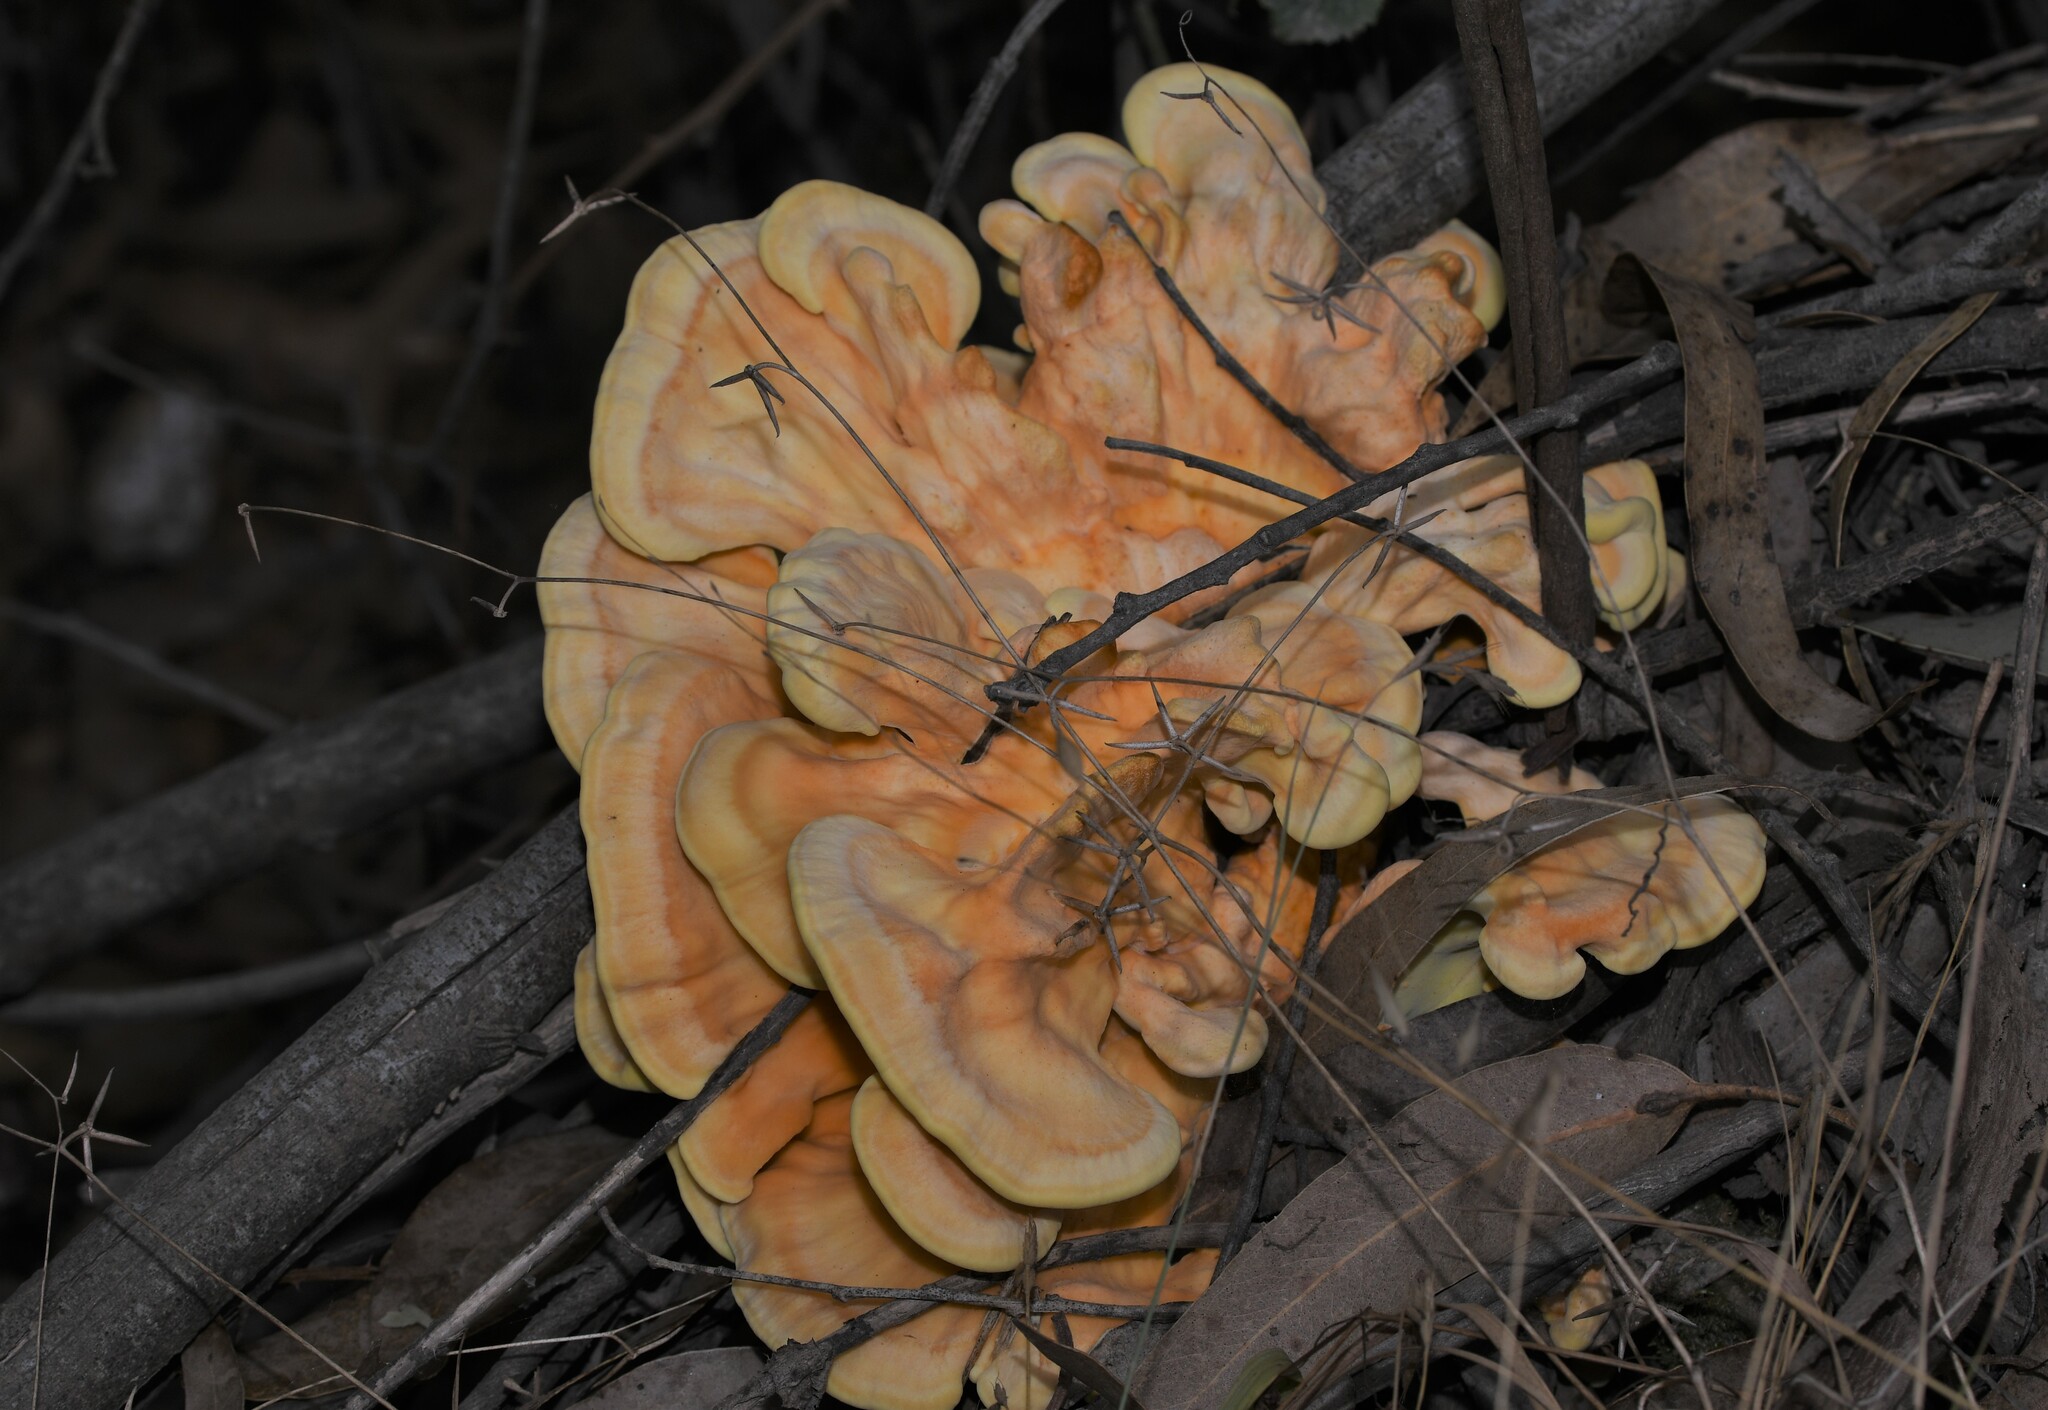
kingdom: Fungi
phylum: Basidiomycota
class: Agaricomycetes
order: Polyporales
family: Laetiporaceae
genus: Laetiporus
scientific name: Laetiporus sulphureus
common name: Chicken of the woods
